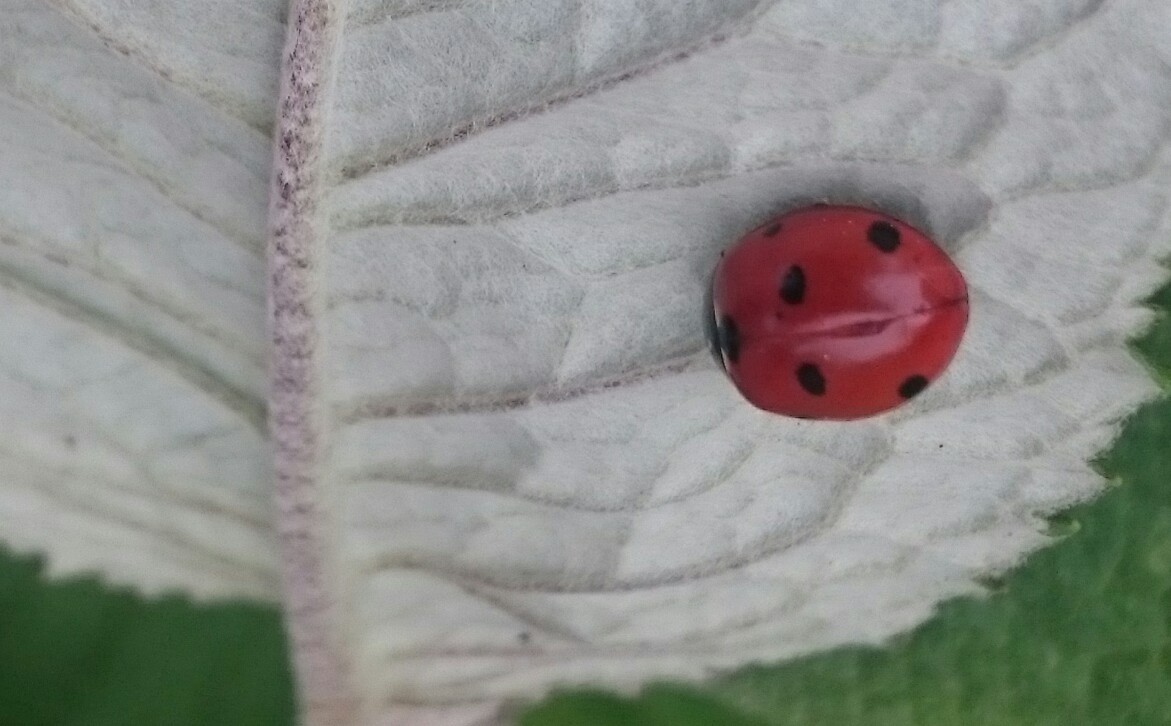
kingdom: Animalia
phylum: Arthropoda
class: Insecta
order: Coleoptera
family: Coccinellidae
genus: Coccinella
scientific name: Coccinella septempunctata
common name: Sevenspotted lady beetle
